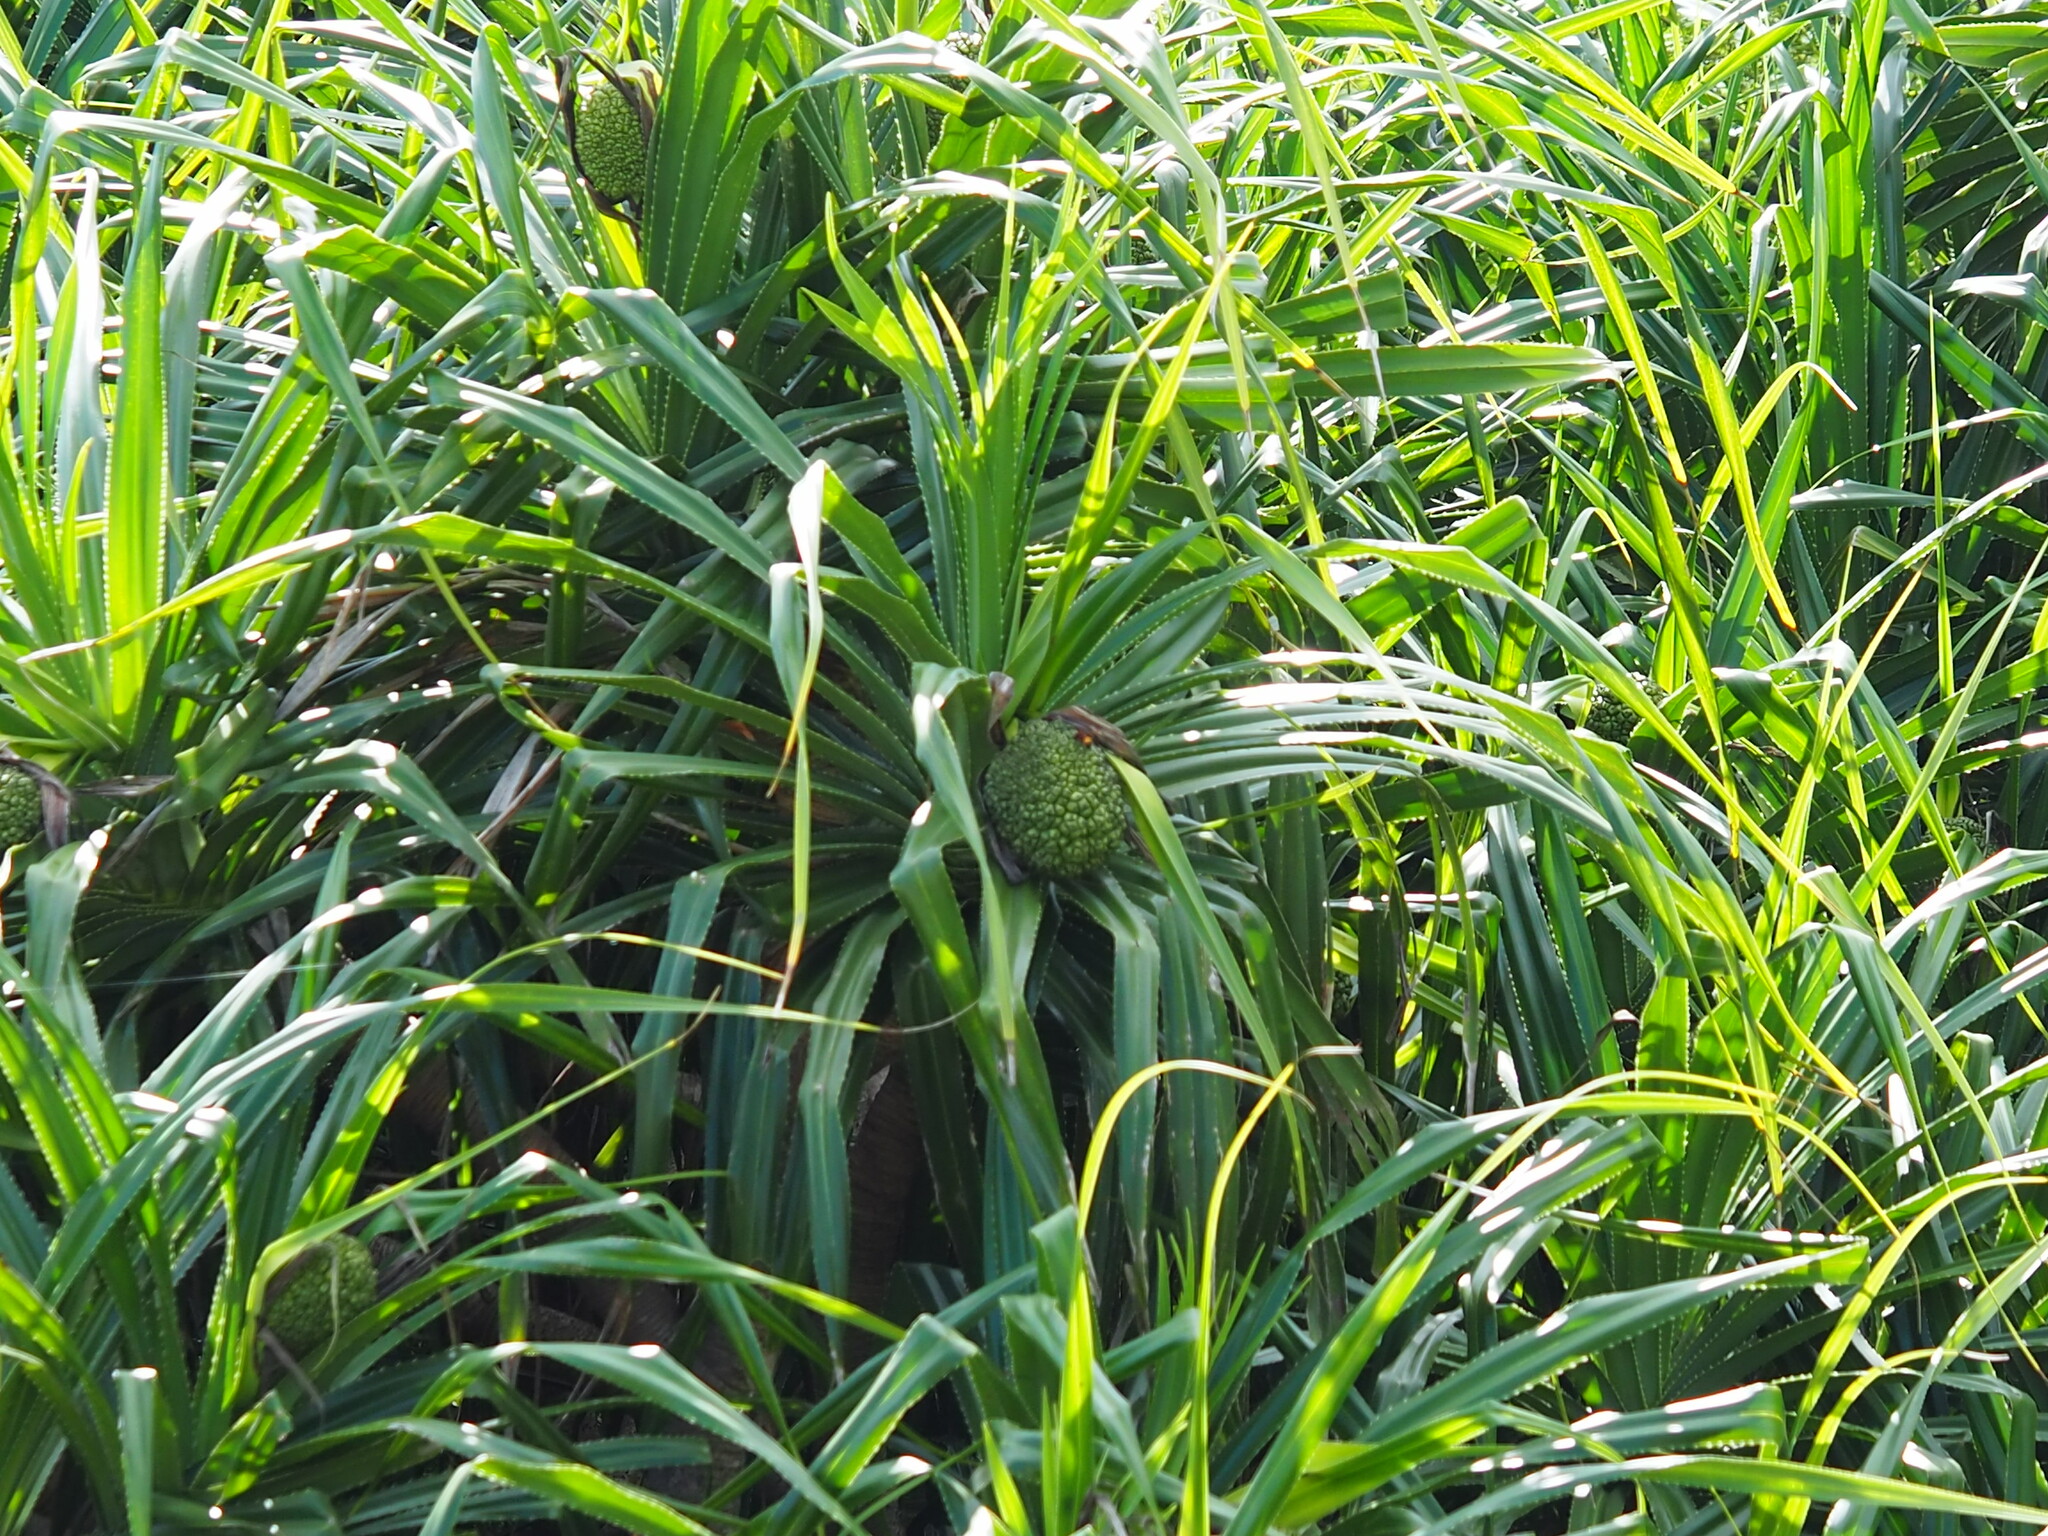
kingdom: Plantae
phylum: Tracheophyta
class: Liliopsida
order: Pandanales
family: Pandanaceae
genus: Pandanus
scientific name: Pandanus odorifer
